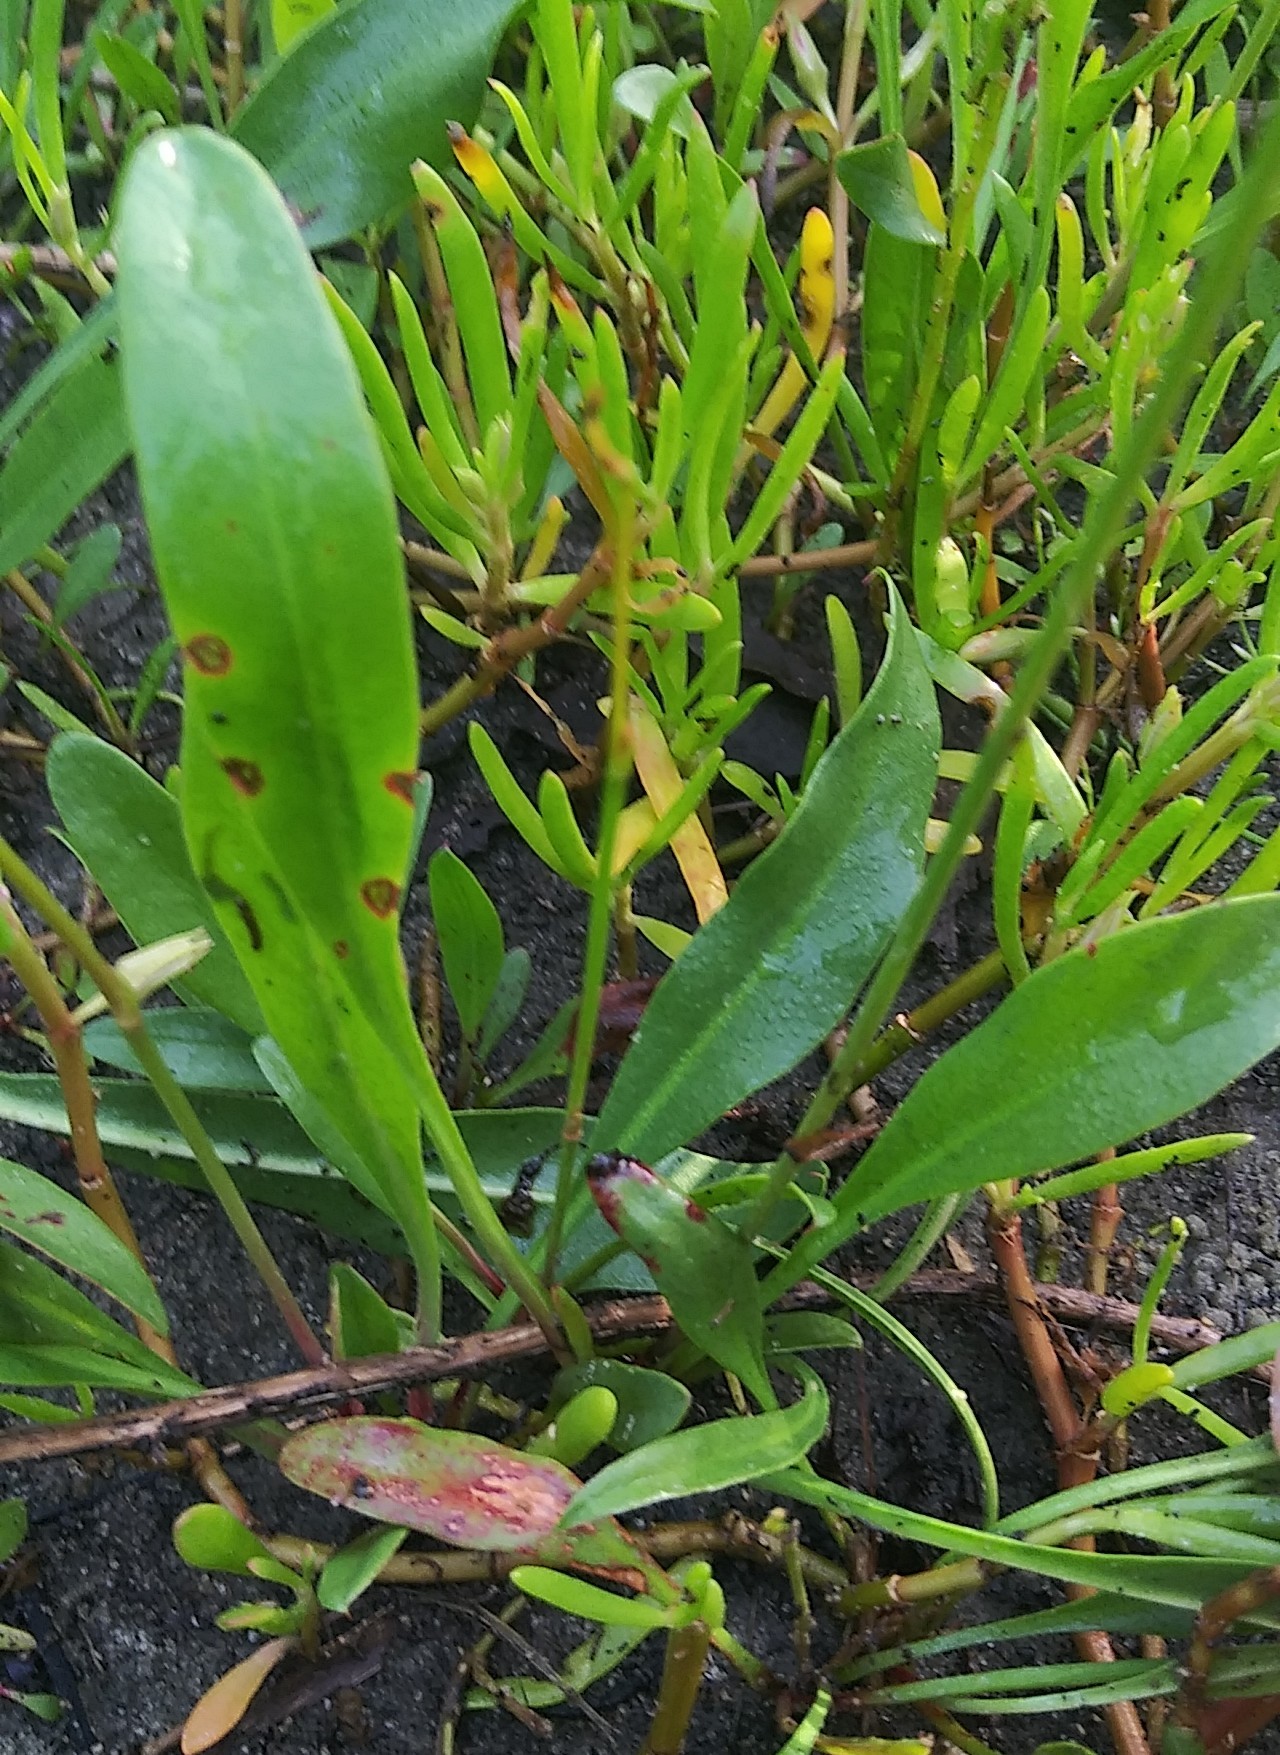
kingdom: Plantae
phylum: Tracheophyta
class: Magnoliopsida
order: Caryophyllales
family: Plumbaginaceae
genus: Limonium
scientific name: Limonium carolinianum
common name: Carolina sea lavender
